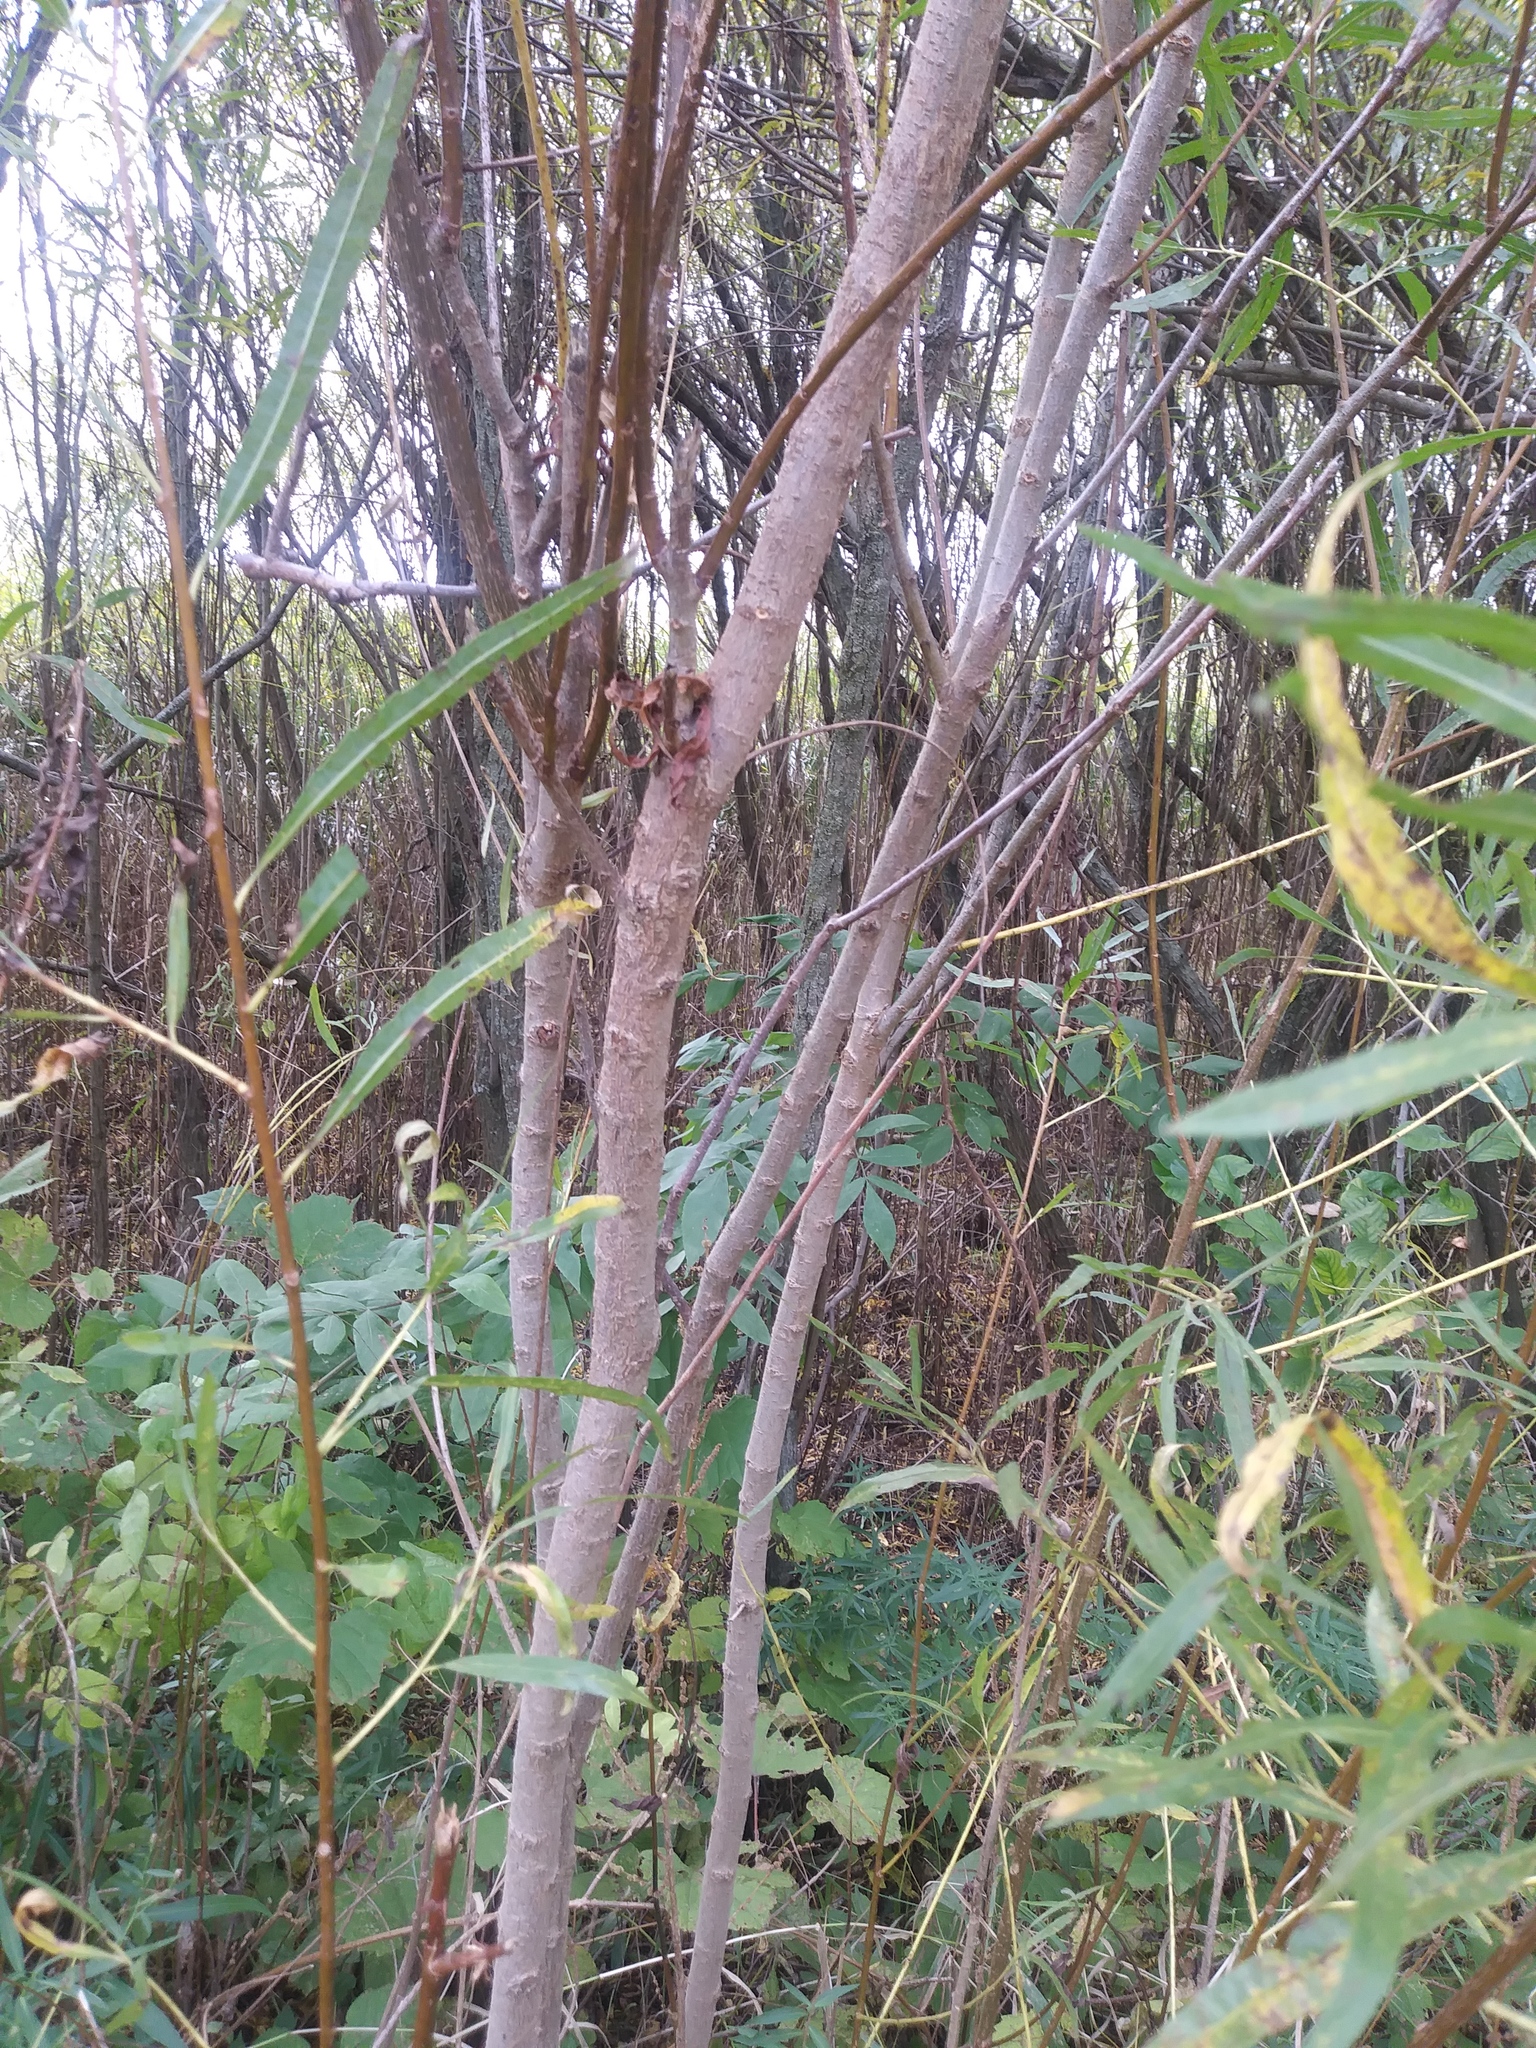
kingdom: Plantae
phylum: Tracheophyta
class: Magnoliopsida
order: Malpighiales
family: Salicaceae
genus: Salix
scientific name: Salix interior
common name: Sandbar willow
